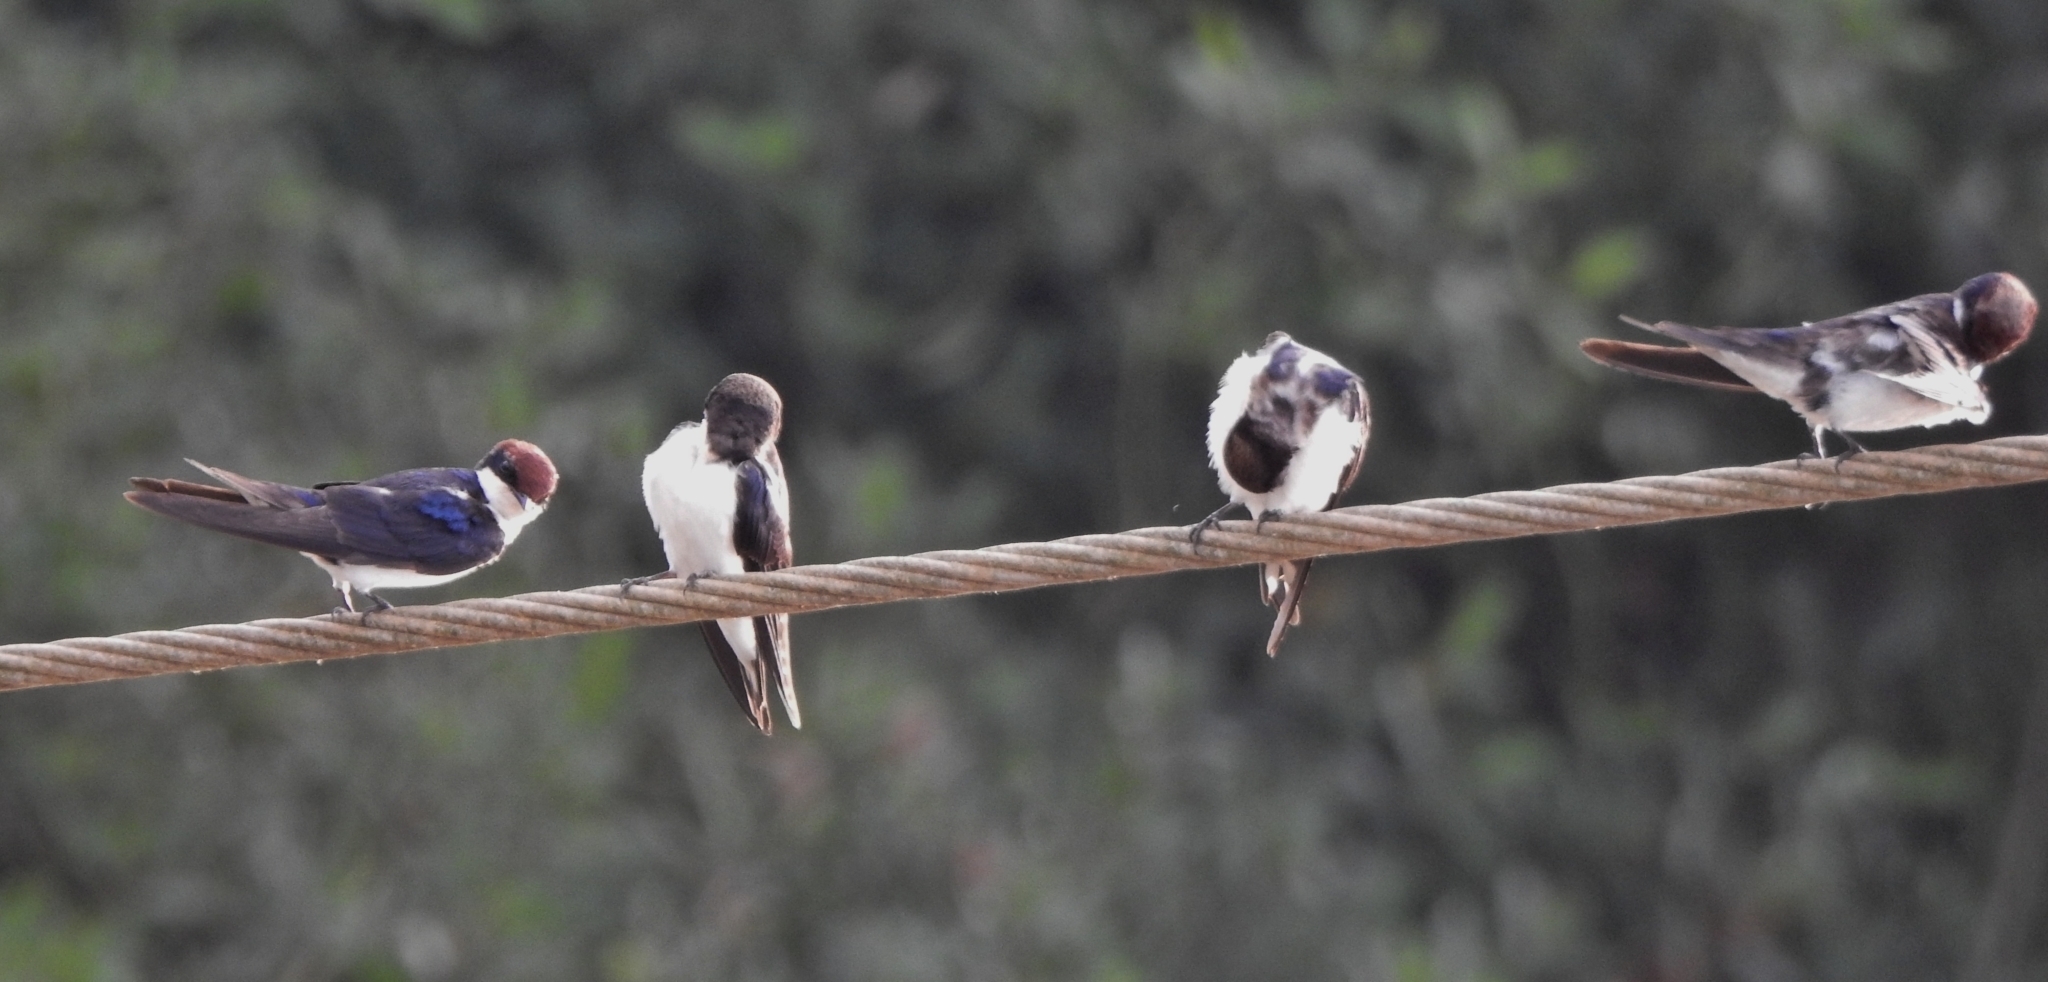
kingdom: Animalia
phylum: Chordata
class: Aves
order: Passeriformes
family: Hirundinidae
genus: Hirundo
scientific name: Hirundo smithii
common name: Wire-tailed swallow
